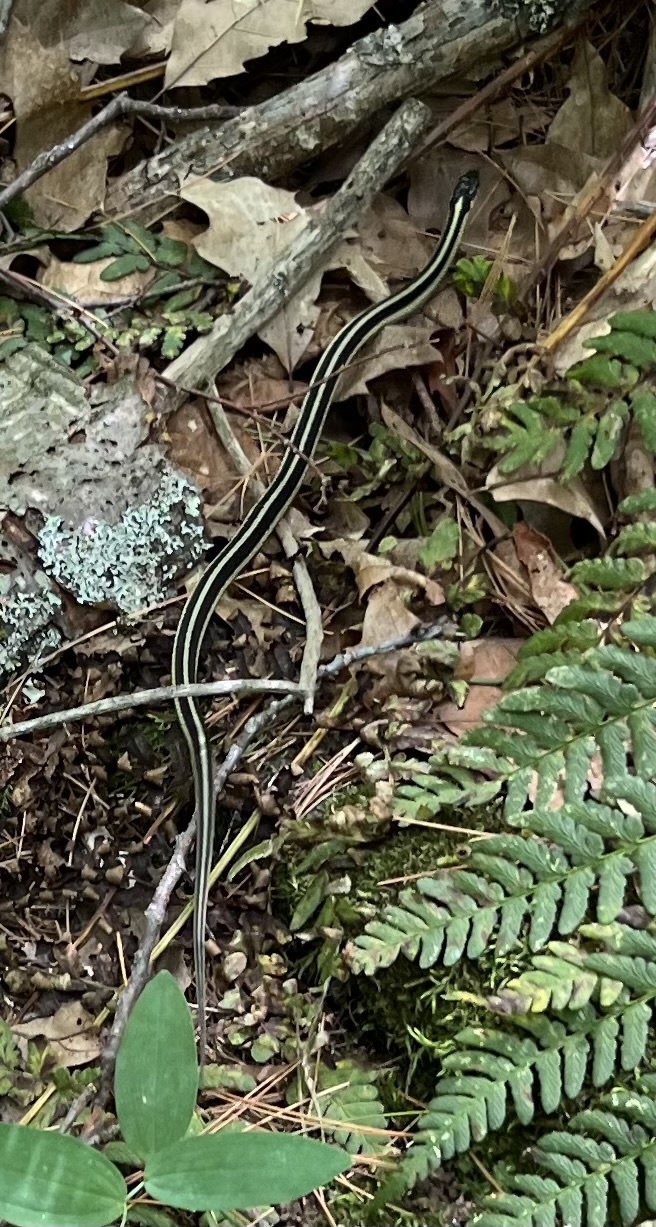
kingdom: Animalia
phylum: Chordata
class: Squamata
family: Colubridae
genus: Thamnophis
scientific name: Thamnophis sirtalis
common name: Common garter snake
